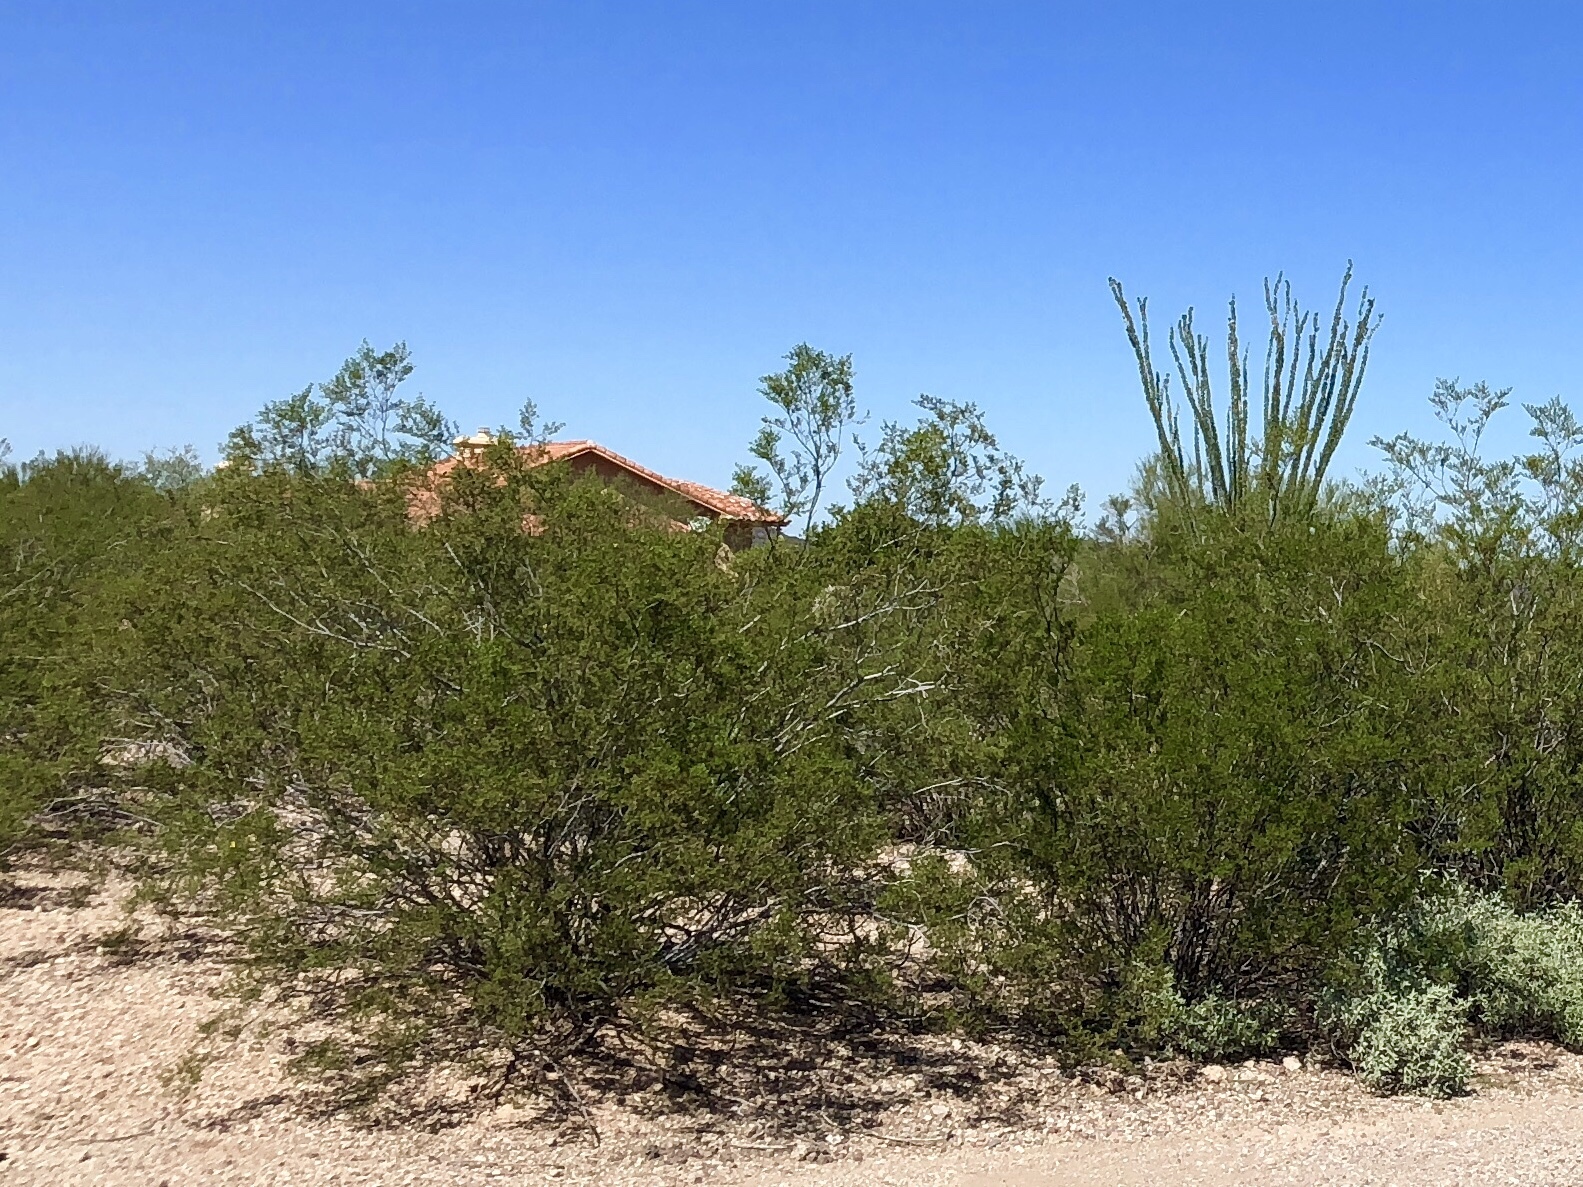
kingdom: Plantae
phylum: Tracheophyta
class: Magnoliopsida
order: Zygophyllales
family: Zygophyllaceae
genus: Larrea
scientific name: Larrea tridentata
